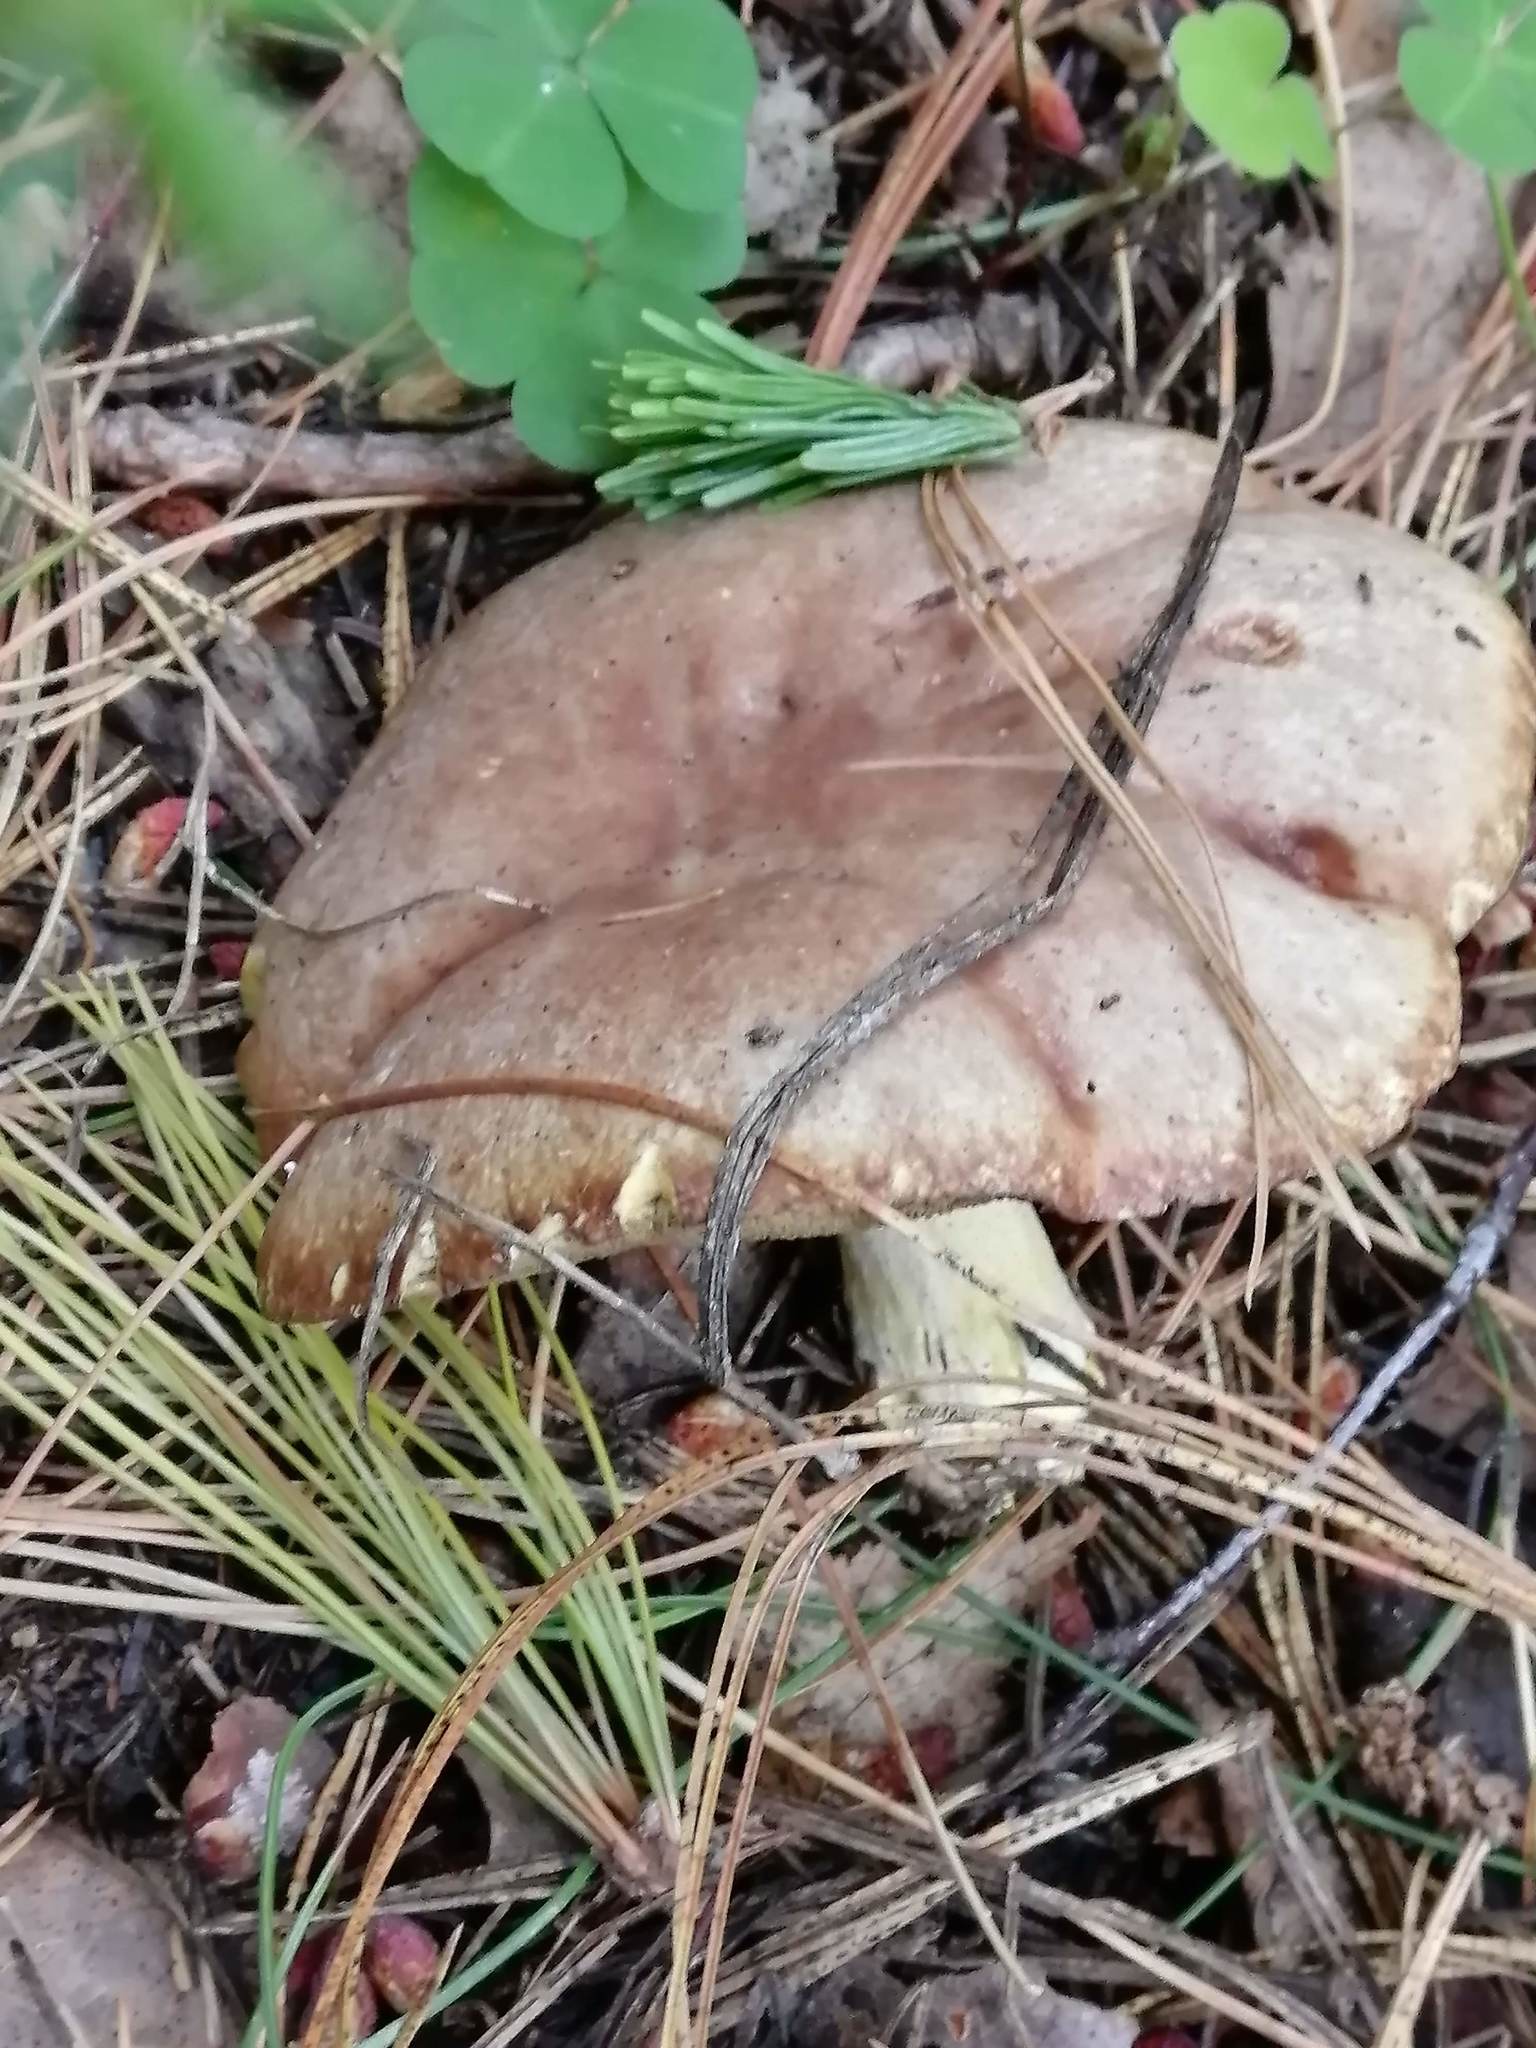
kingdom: Fungi
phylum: Basidiomycota
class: Agaricomycetes
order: Boletales
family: Suillaceae
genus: Suillus
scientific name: Suillus placidus
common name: Slippery white bolete
